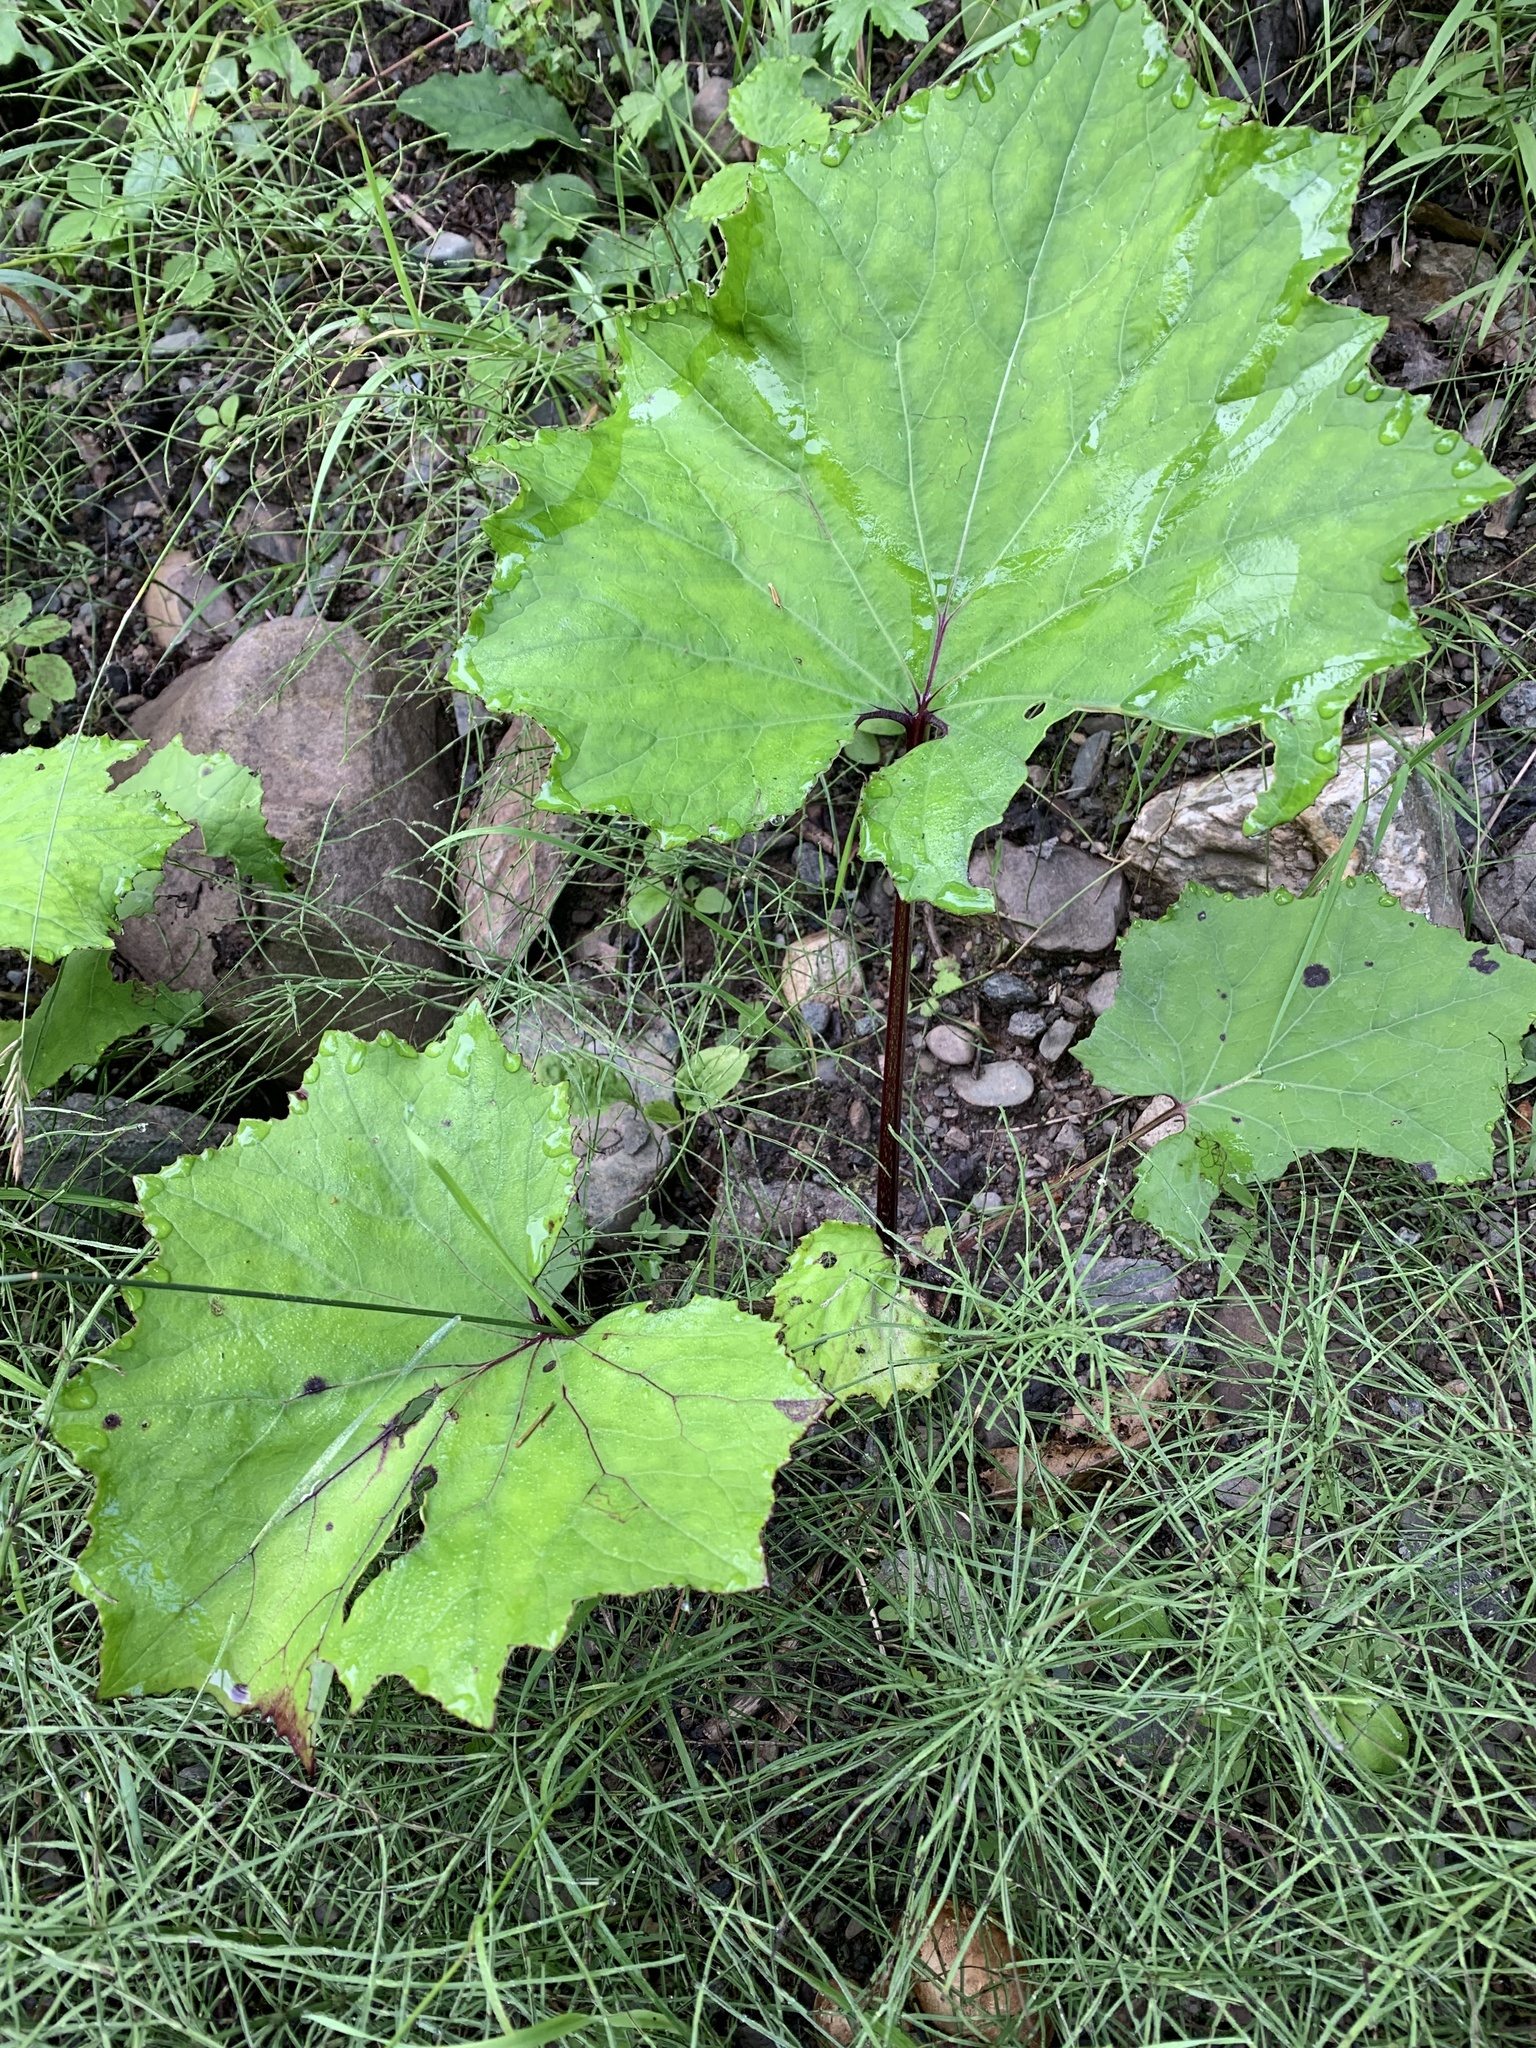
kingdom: Plantae
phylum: Tracheophyta
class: Magnoliopsida
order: Asterales
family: Asteraceae
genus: Tussilago
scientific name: Tussilago farfara
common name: Coltsfoot
